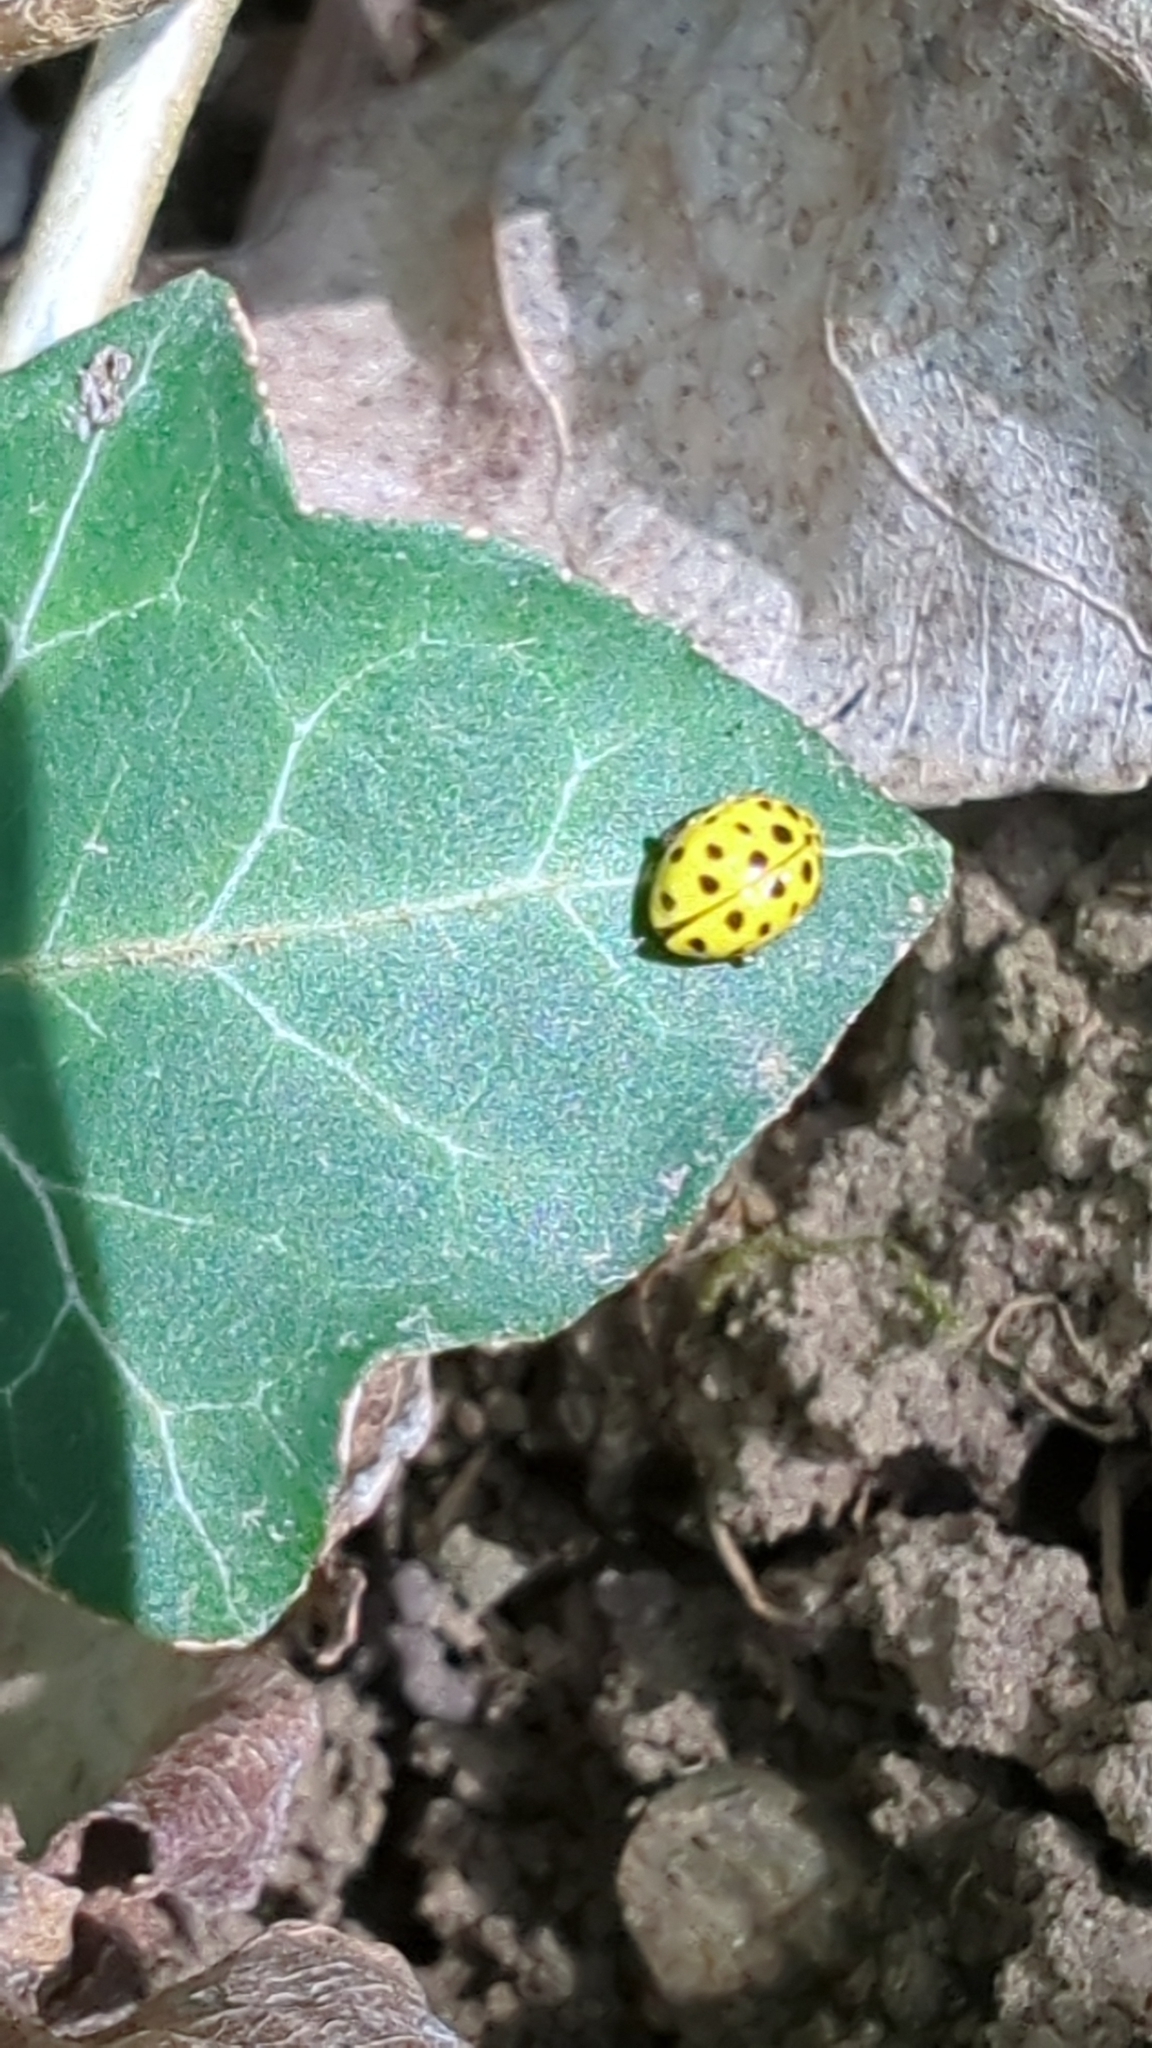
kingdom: Animalia
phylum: Arthropoda
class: Insecta
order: Coleoptera
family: Coccinellidae
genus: Psyllobora
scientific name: Psyllobora vigintiduopunctata
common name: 22-spot ladybird
